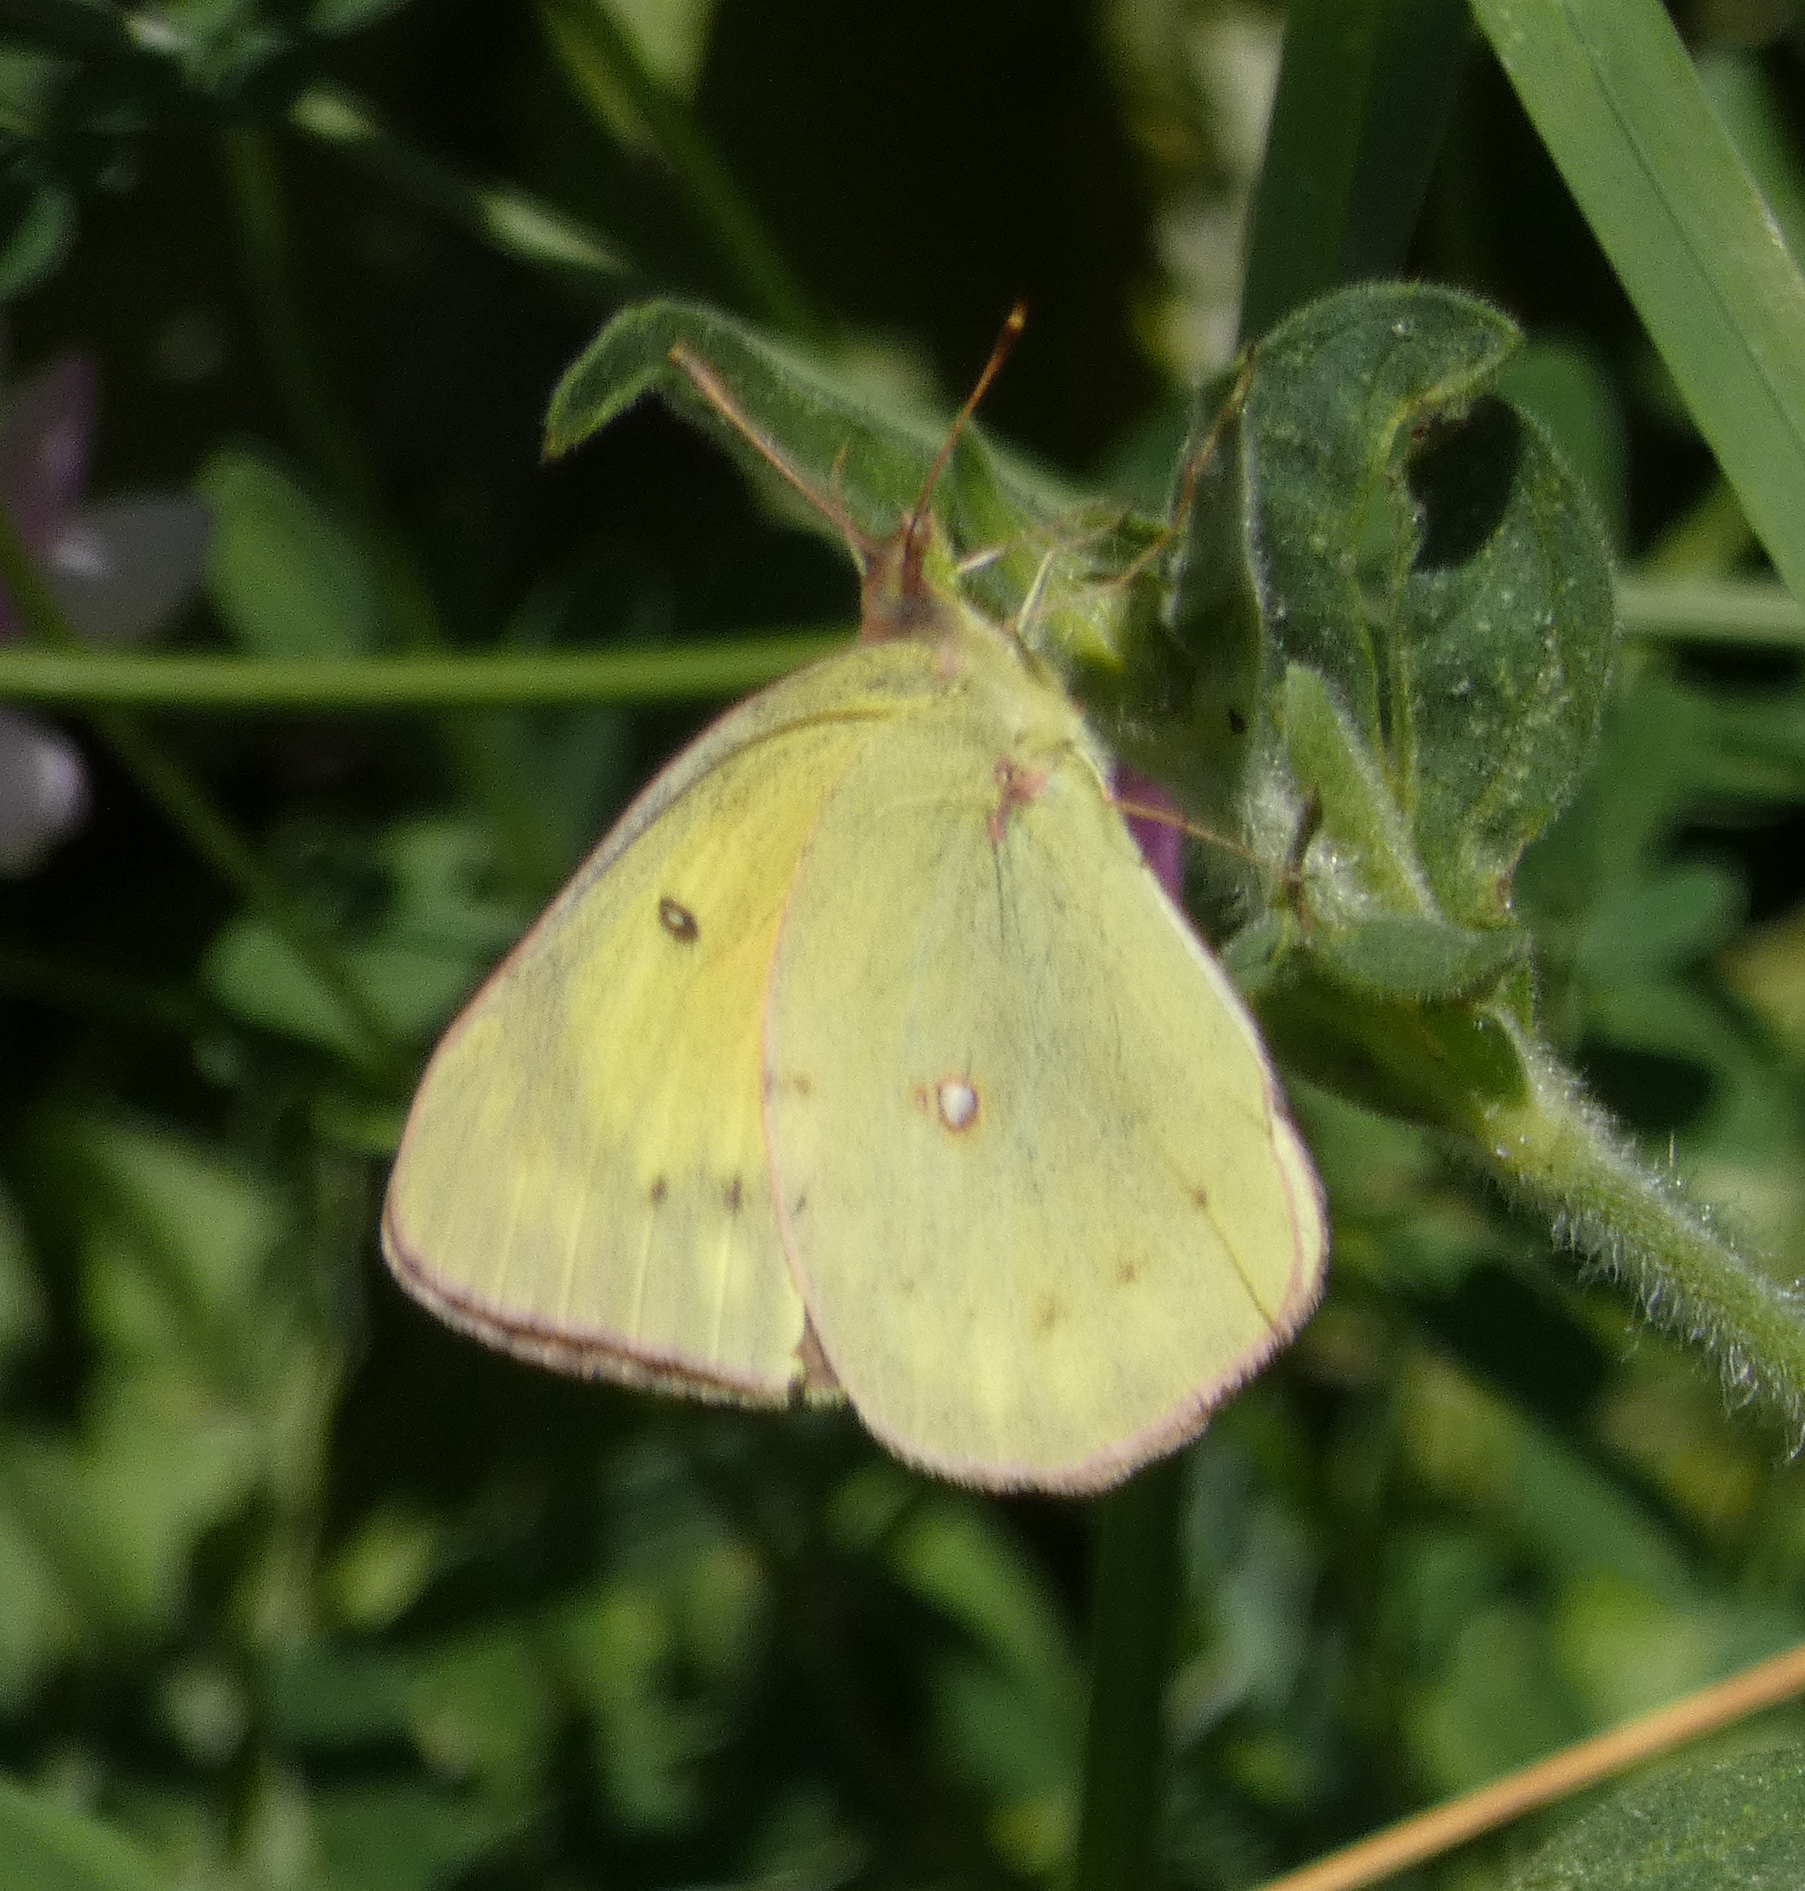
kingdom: Animalia
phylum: Arthropoda
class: Insecta
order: Lepidoptera
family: Pieridae
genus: Colias
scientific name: Colias eurytheme
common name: Alfalfa butterfly
